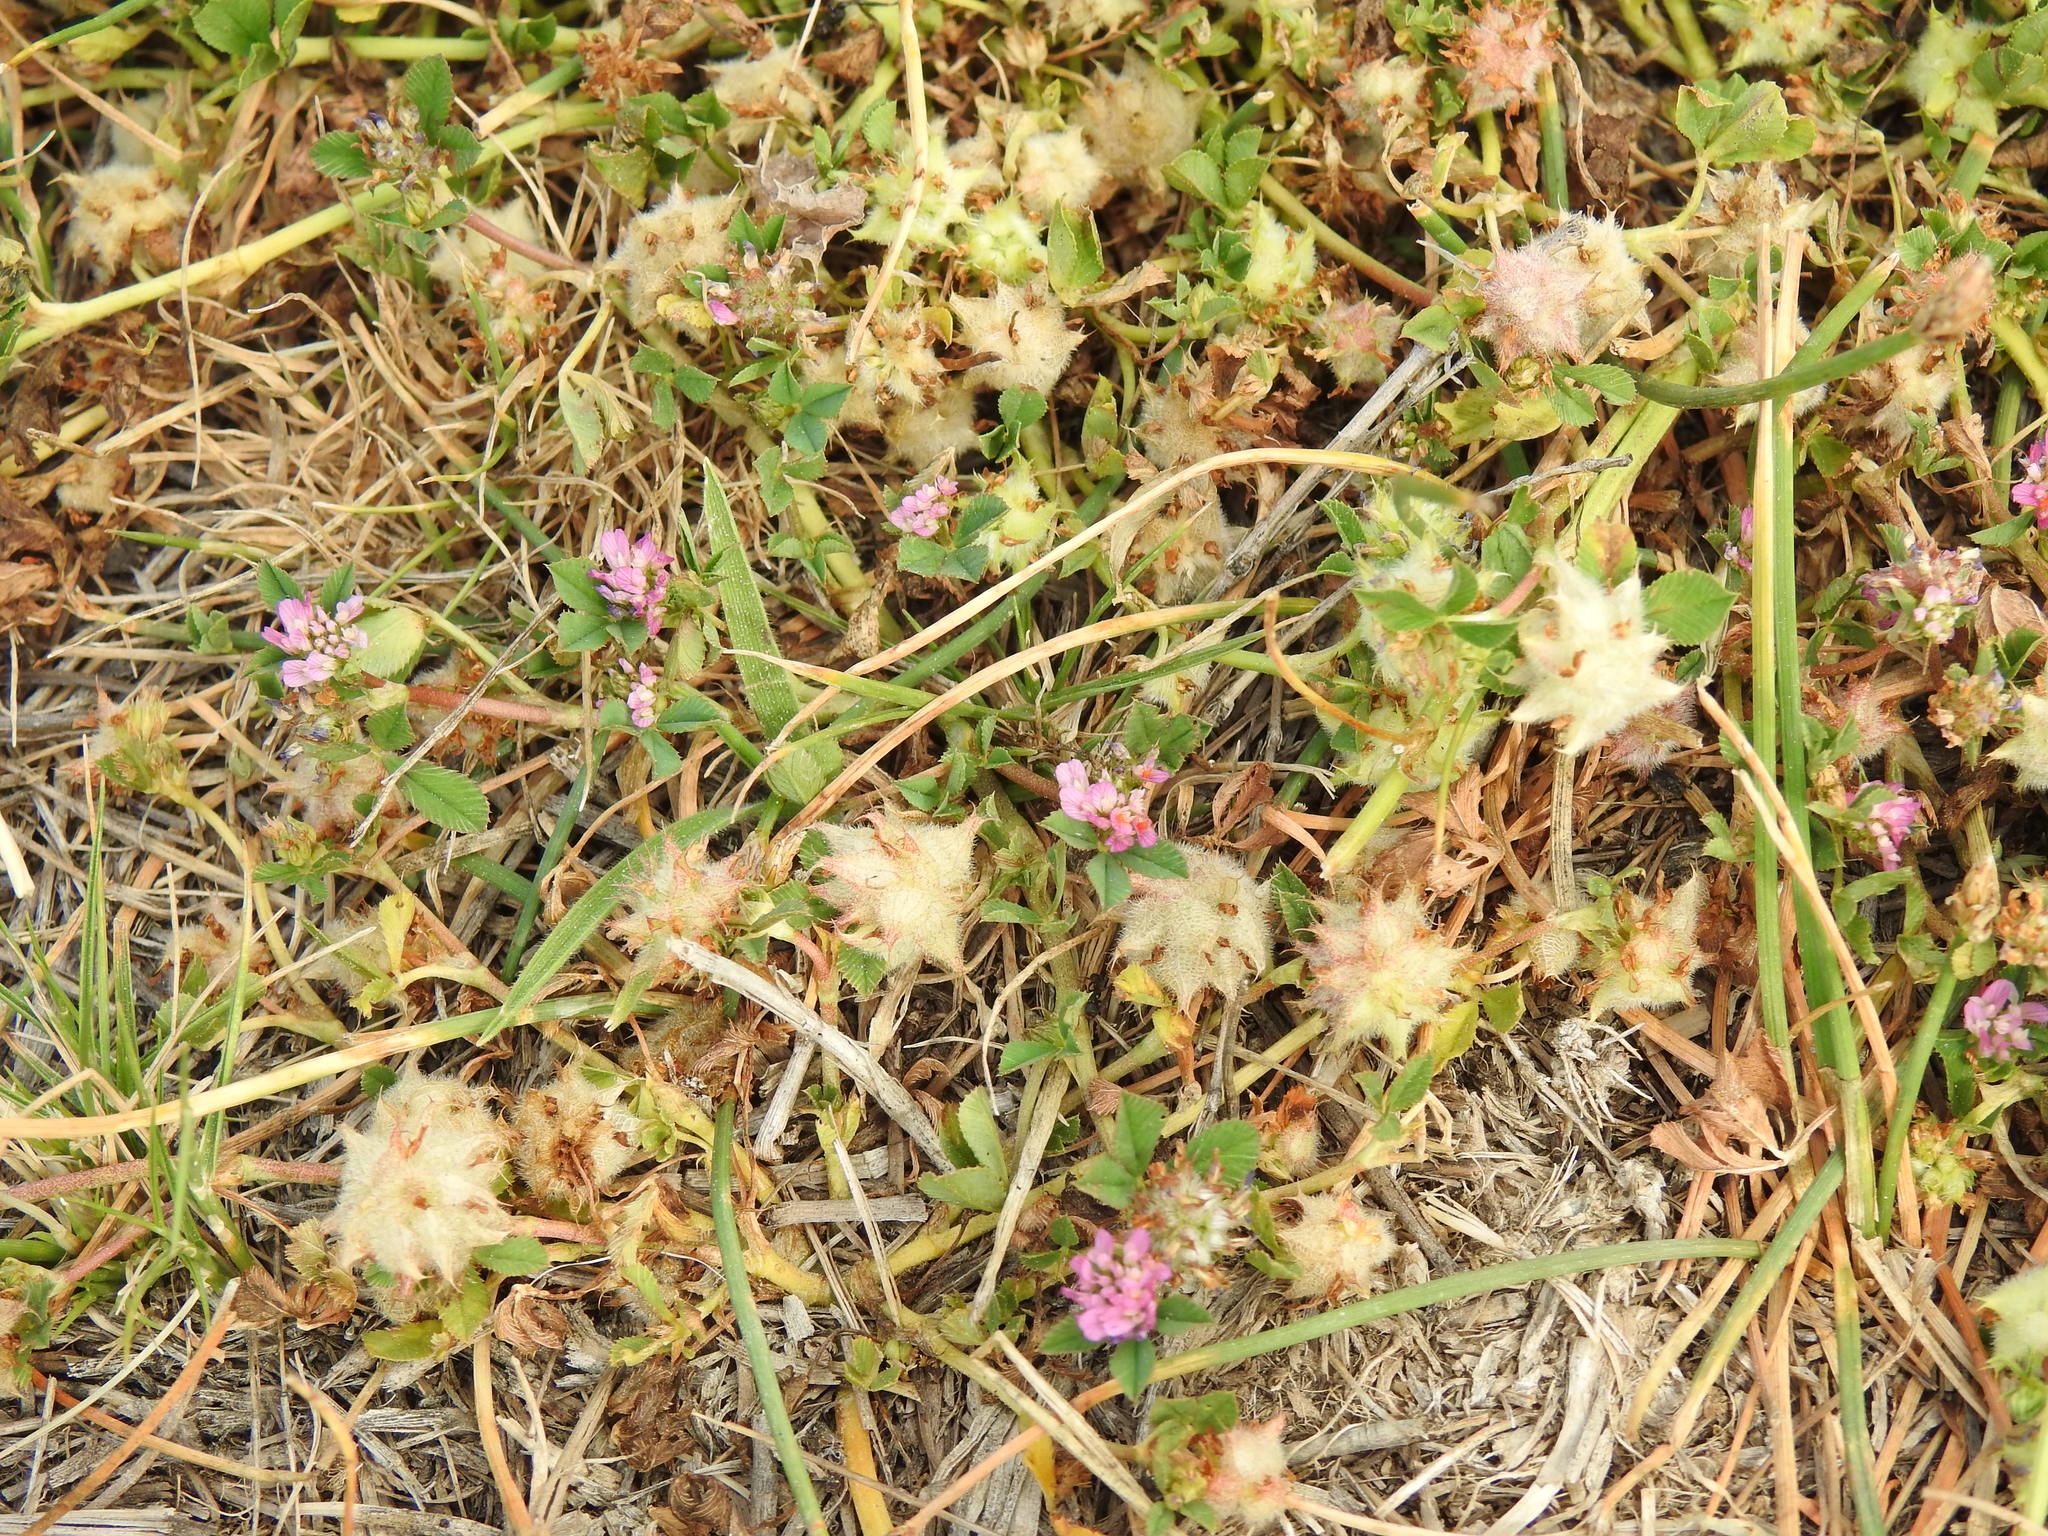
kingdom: Plantae
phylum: Tracheophyta
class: Magnoliopsida
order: Fabales
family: Fabaceae
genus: Trifolium
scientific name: Trifolium resupinatum
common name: Reversed clover
